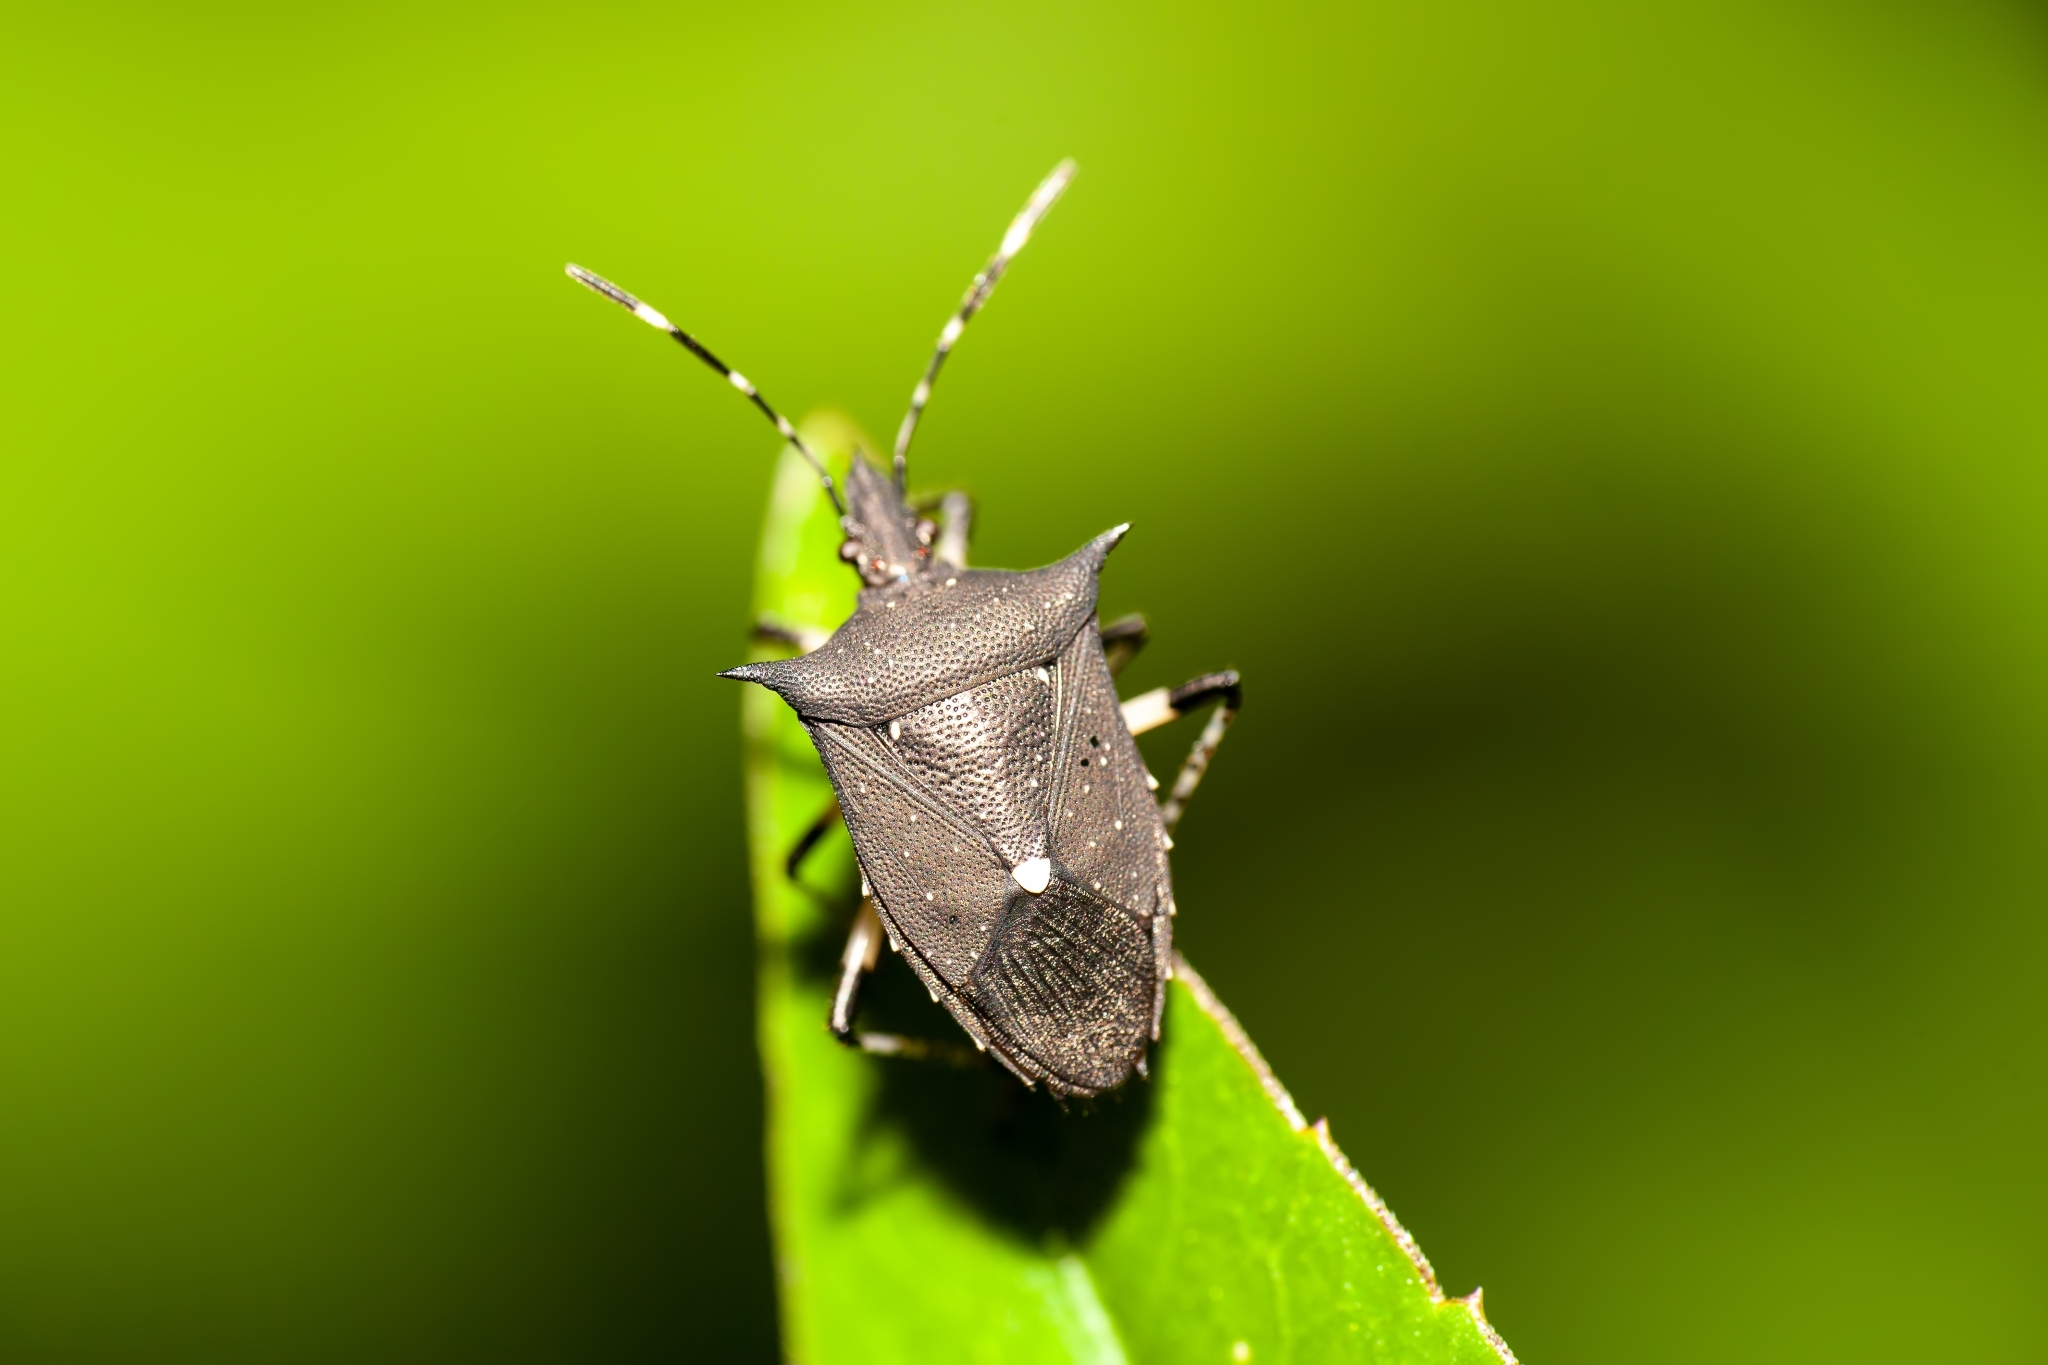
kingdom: Animalia
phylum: Arthropoda
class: Insecta
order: Hemiptera
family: Pentatomidae
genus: Proxys
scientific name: Proxys punctulatus
